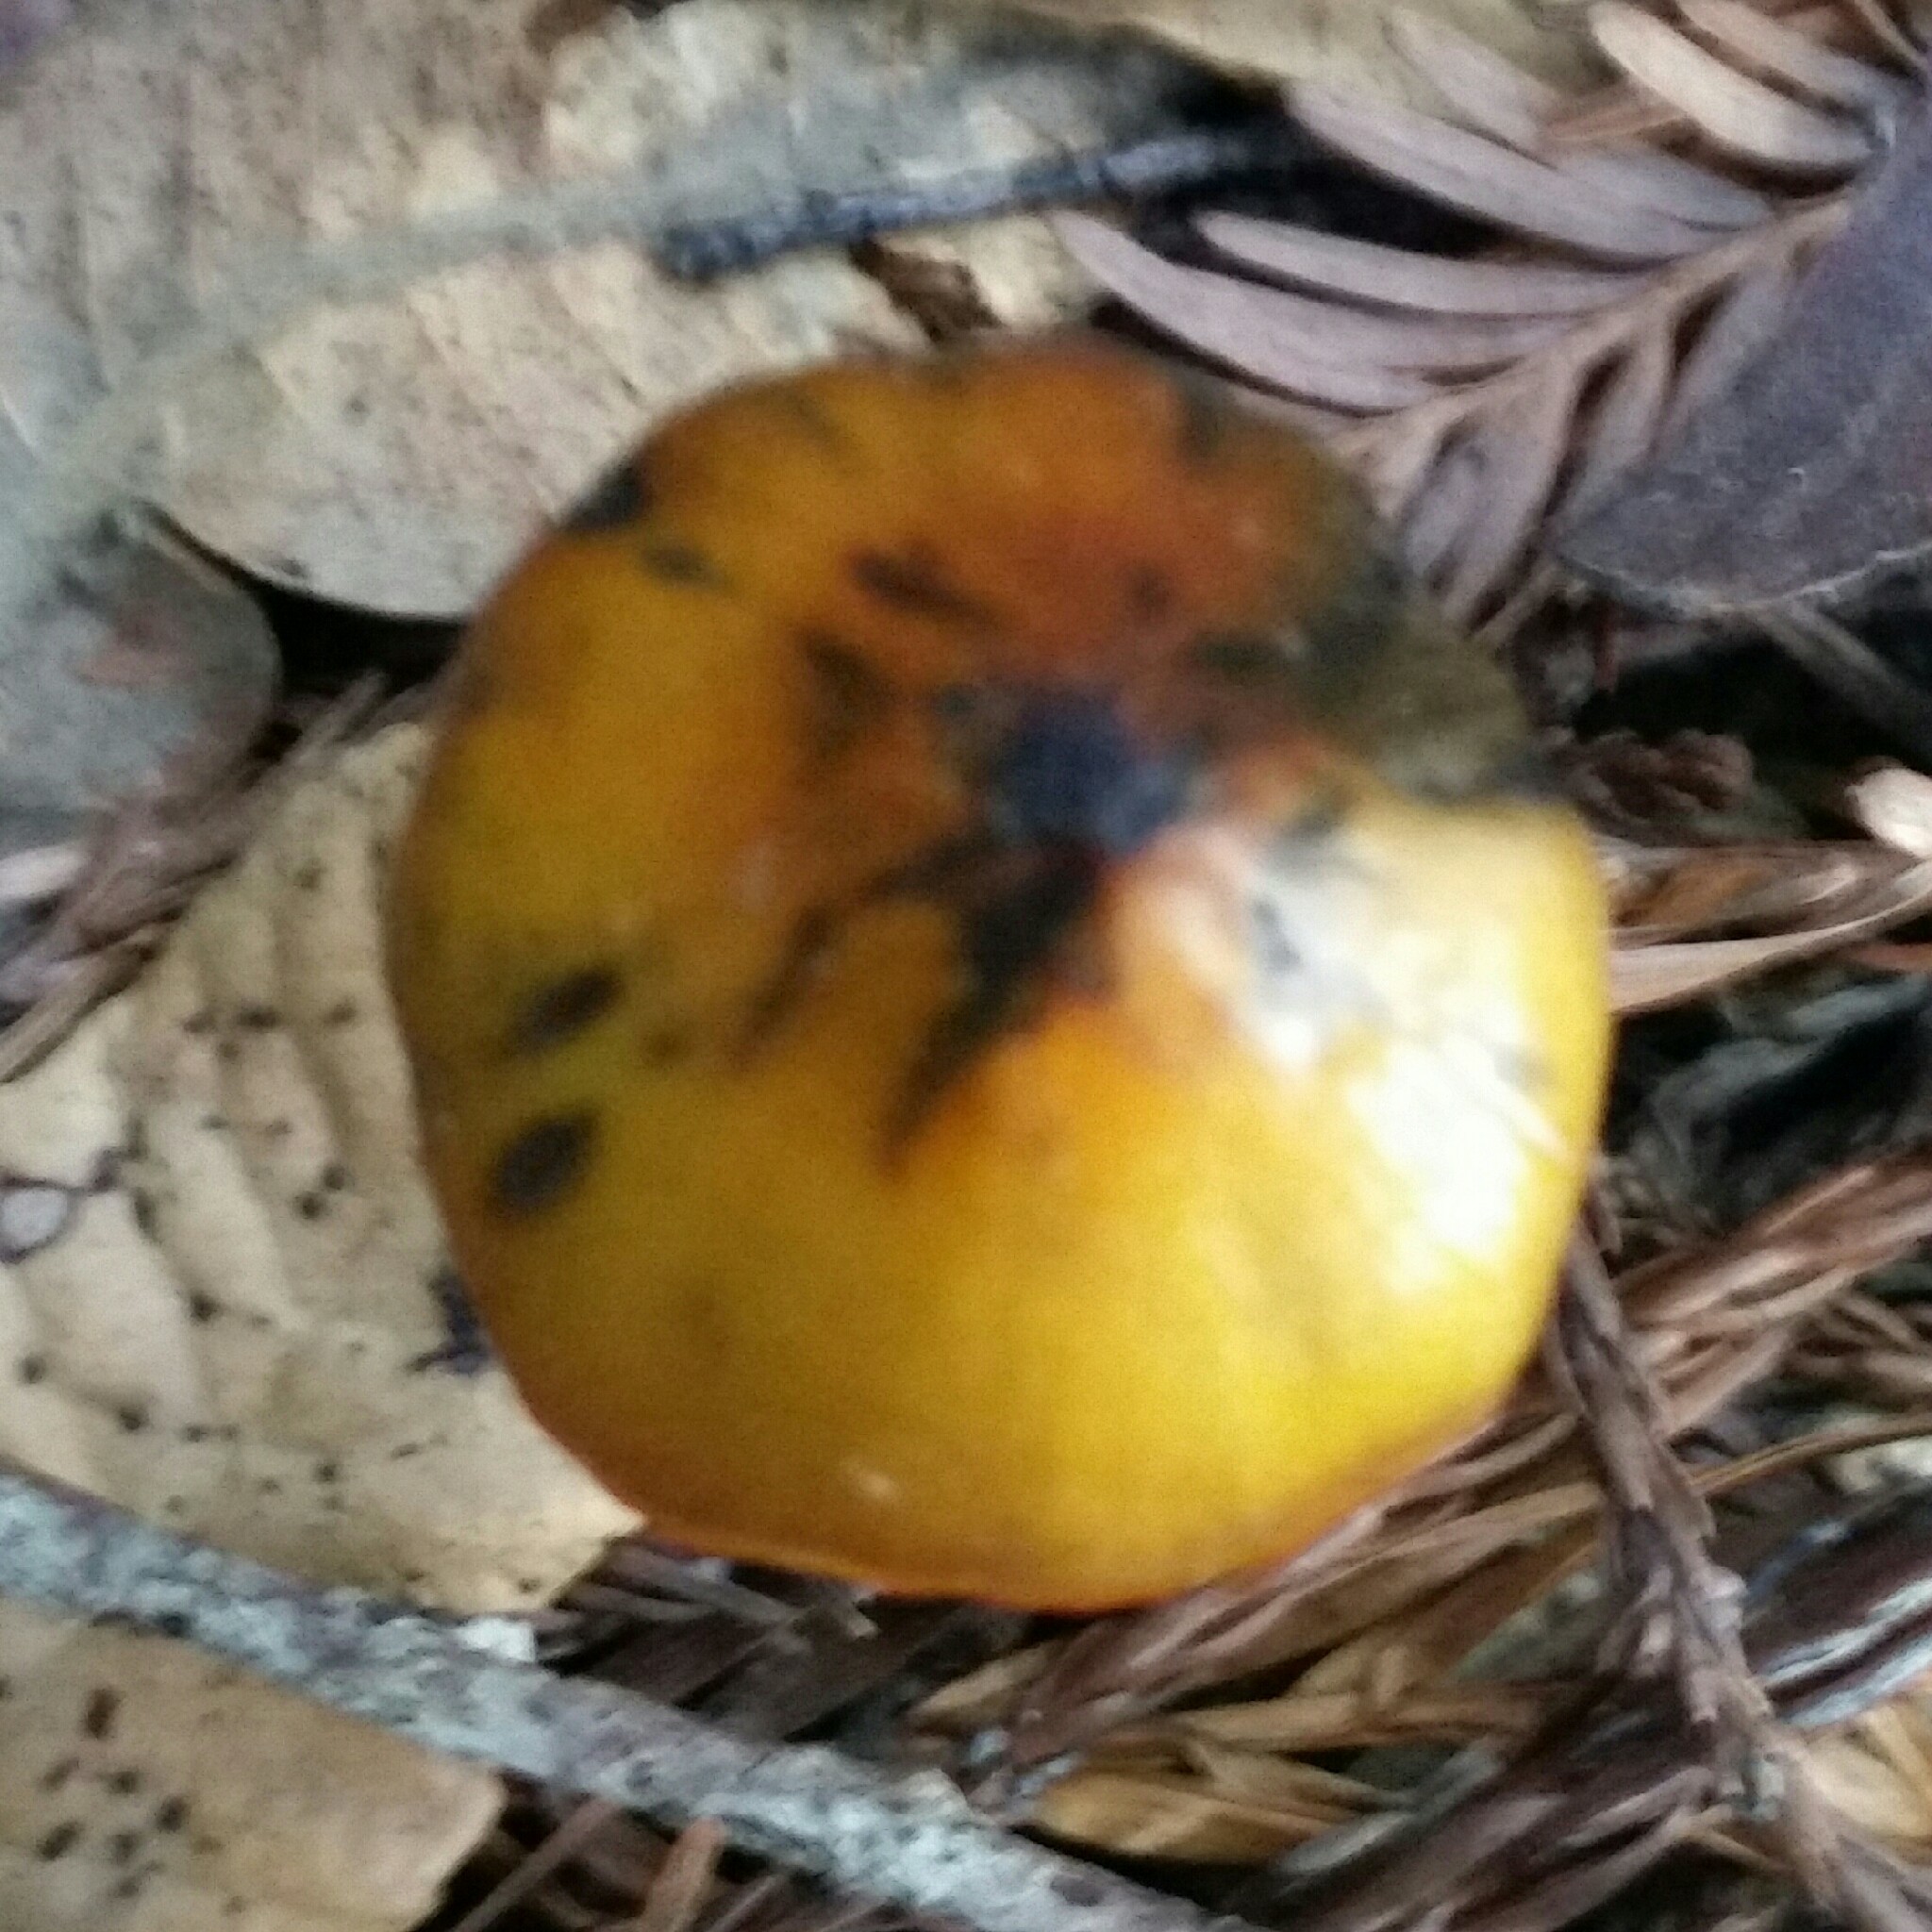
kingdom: Fungi
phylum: Basidiomycota
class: Agaricomycetes
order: Agaricales
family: Hygrophoraceae
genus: Hygrocybe
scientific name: Hygrocybe singeri
